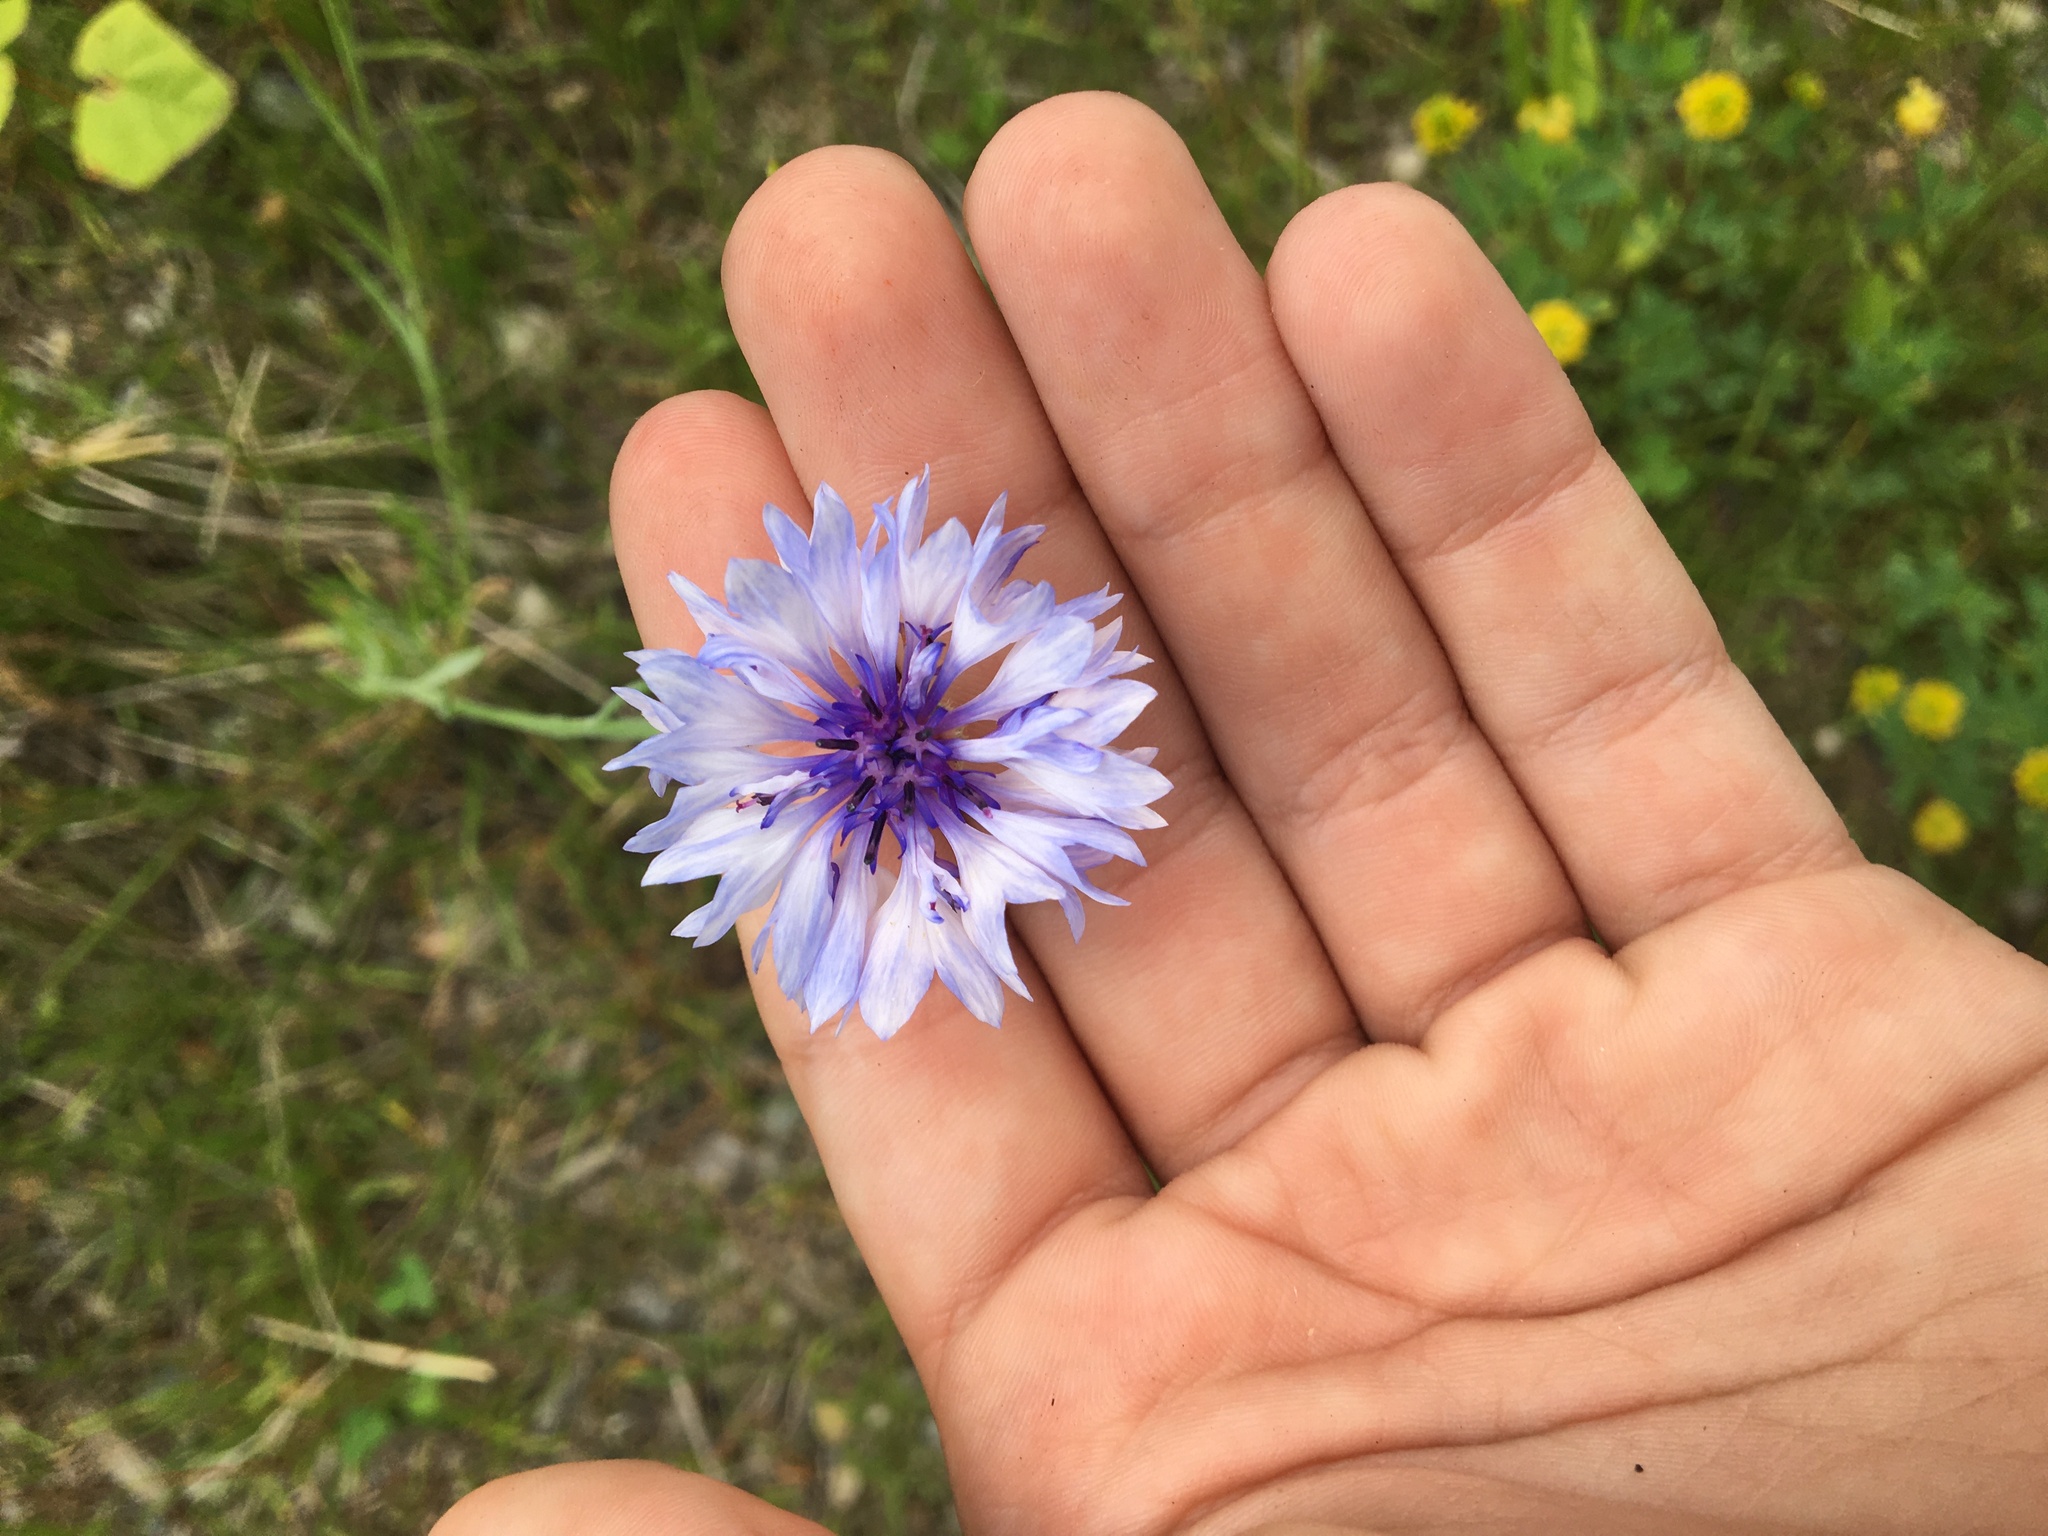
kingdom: Plantae
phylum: Tracheophyta
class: Magnoliopsida
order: Asterales
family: Asteraceae
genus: Centaurea
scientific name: Centaurea cyanus
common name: Cornflower
